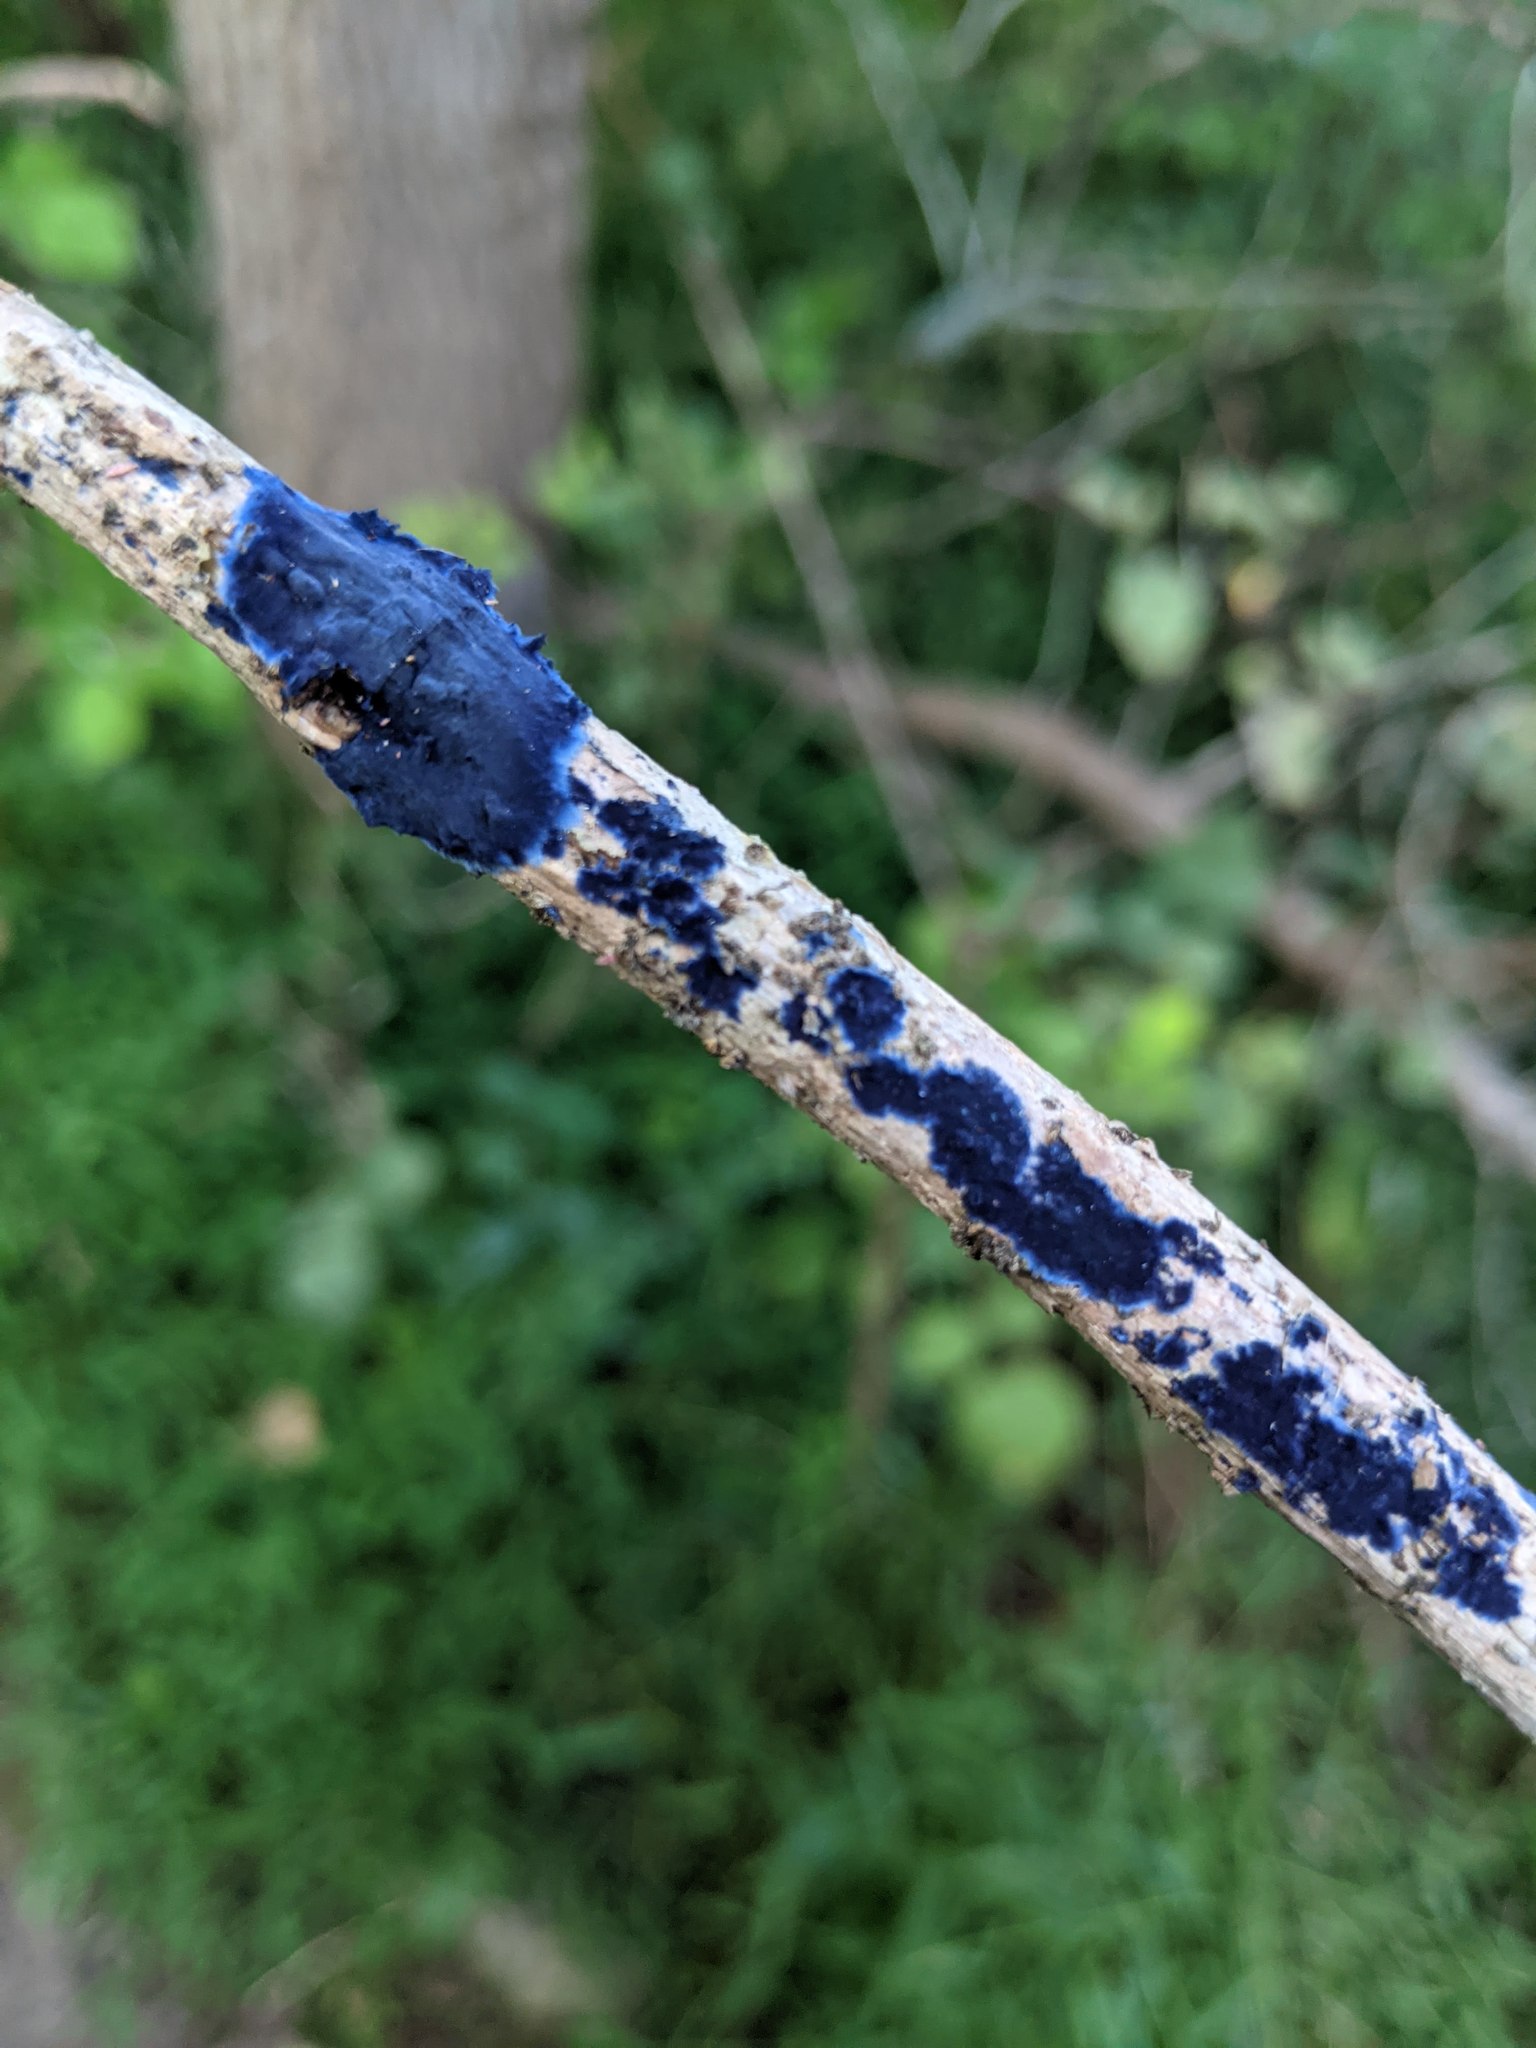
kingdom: Fungi
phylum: Basidiomycota
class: Agaricomycetes
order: Polyporales
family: Phanerochaetaceae
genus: Terana
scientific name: Terana coerulea
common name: Cobalt crust
